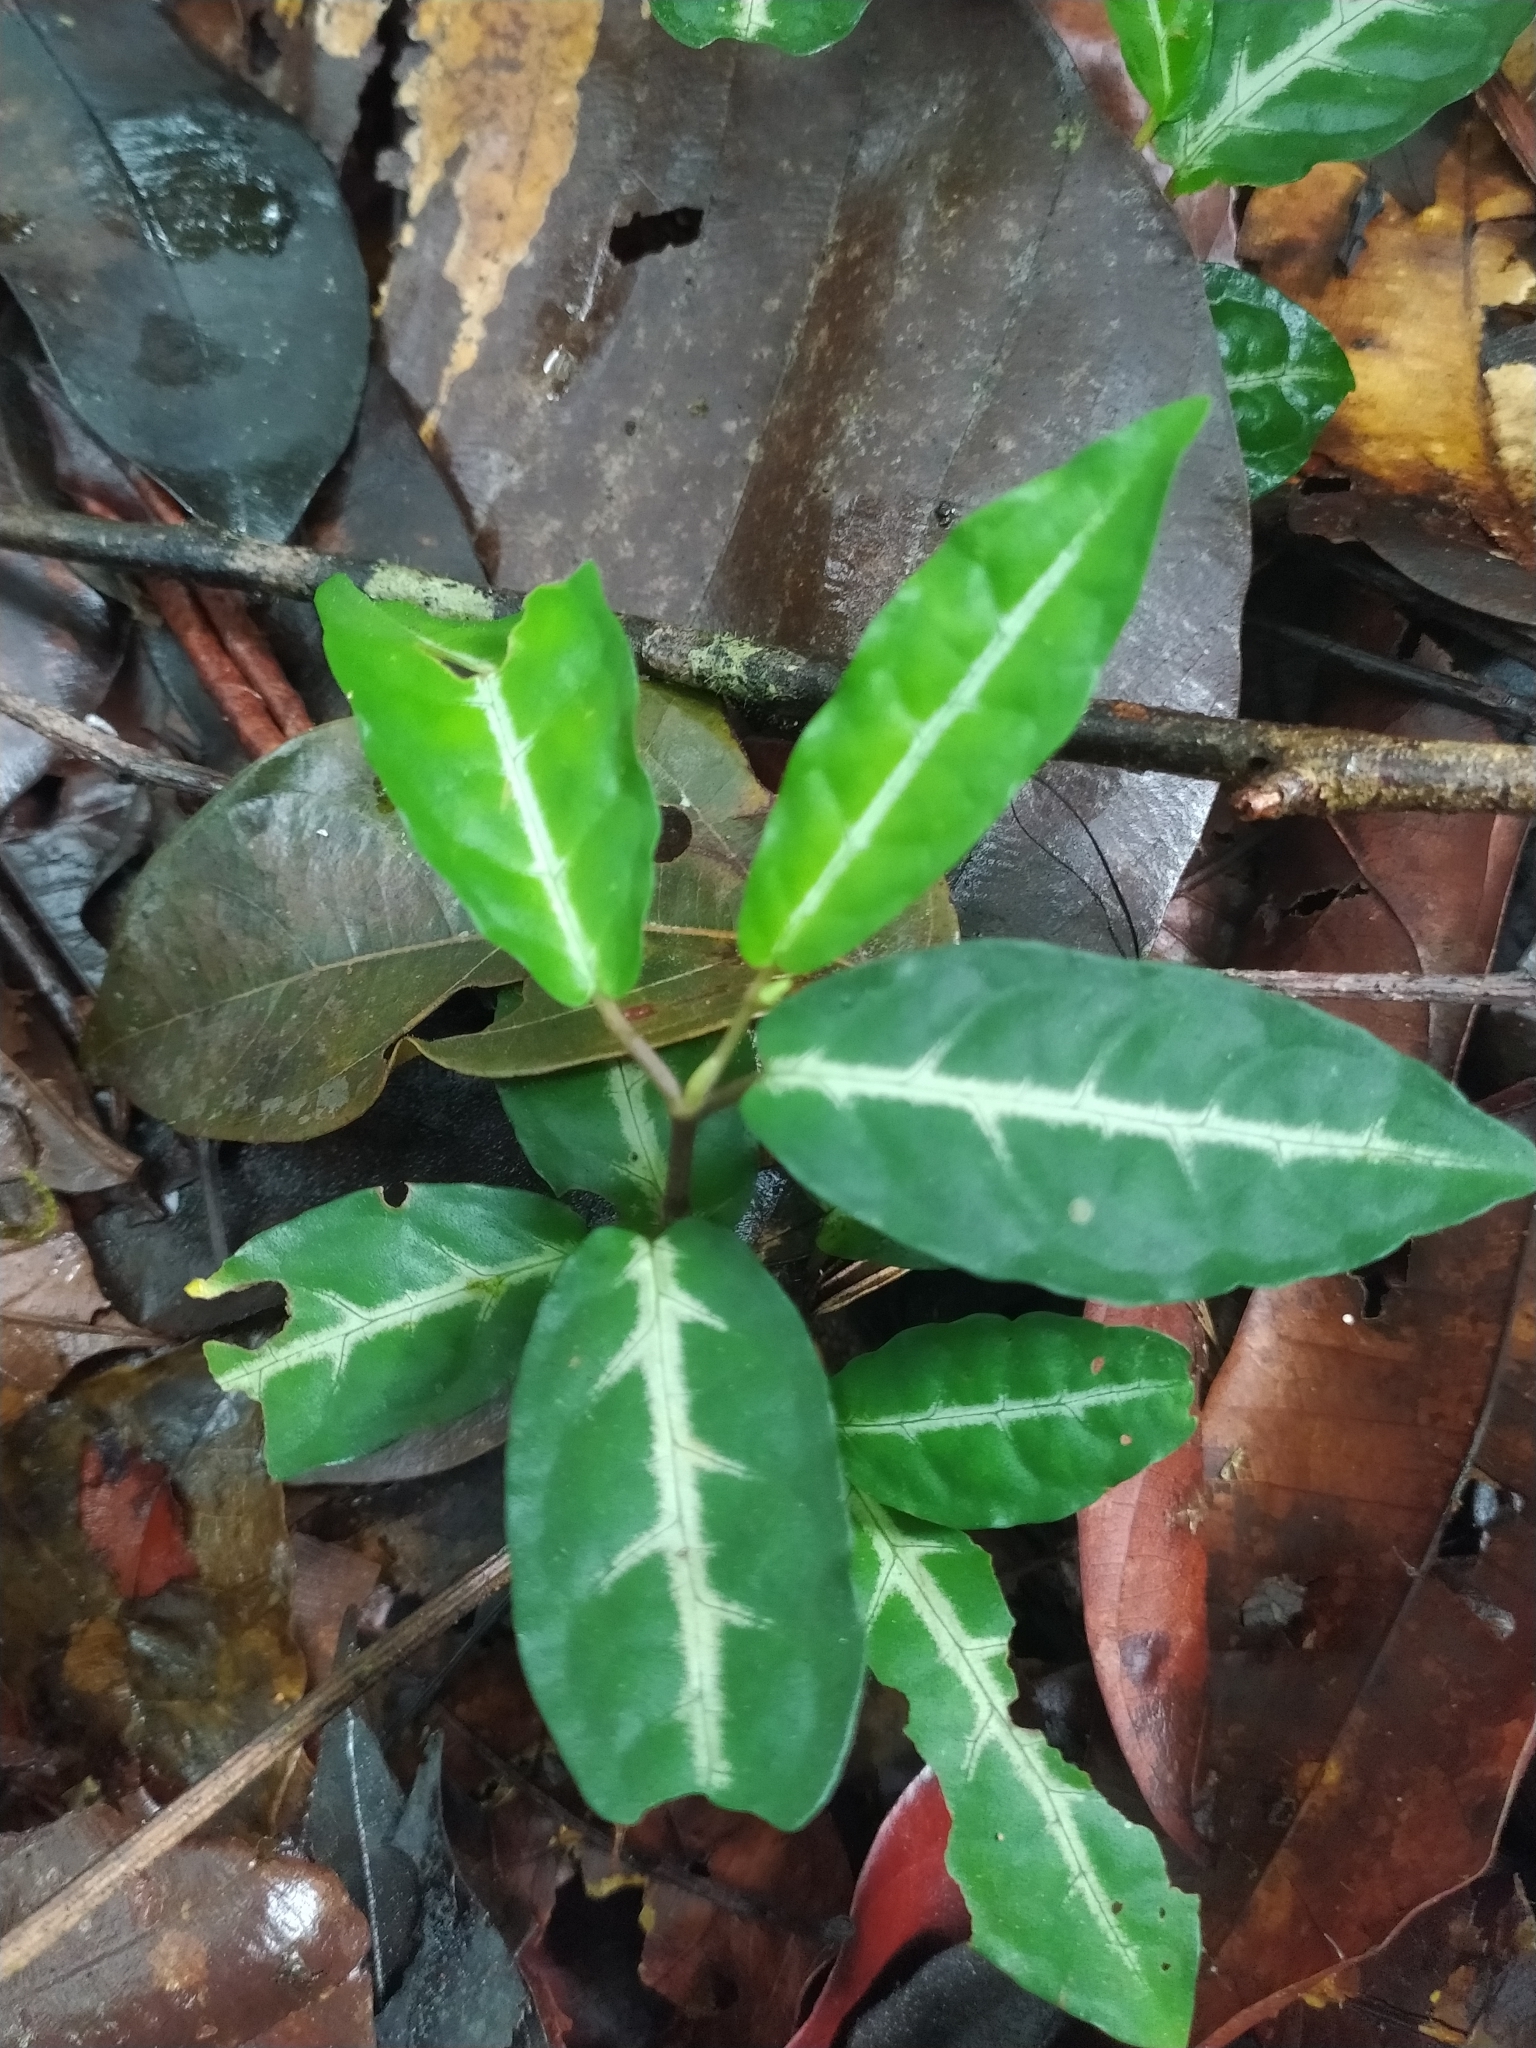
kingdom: Plantae
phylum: Tracheophyta
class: Magnoliopsida
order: Piperales
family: Piperaceae
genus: Piper
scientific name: Piper consanguineum
